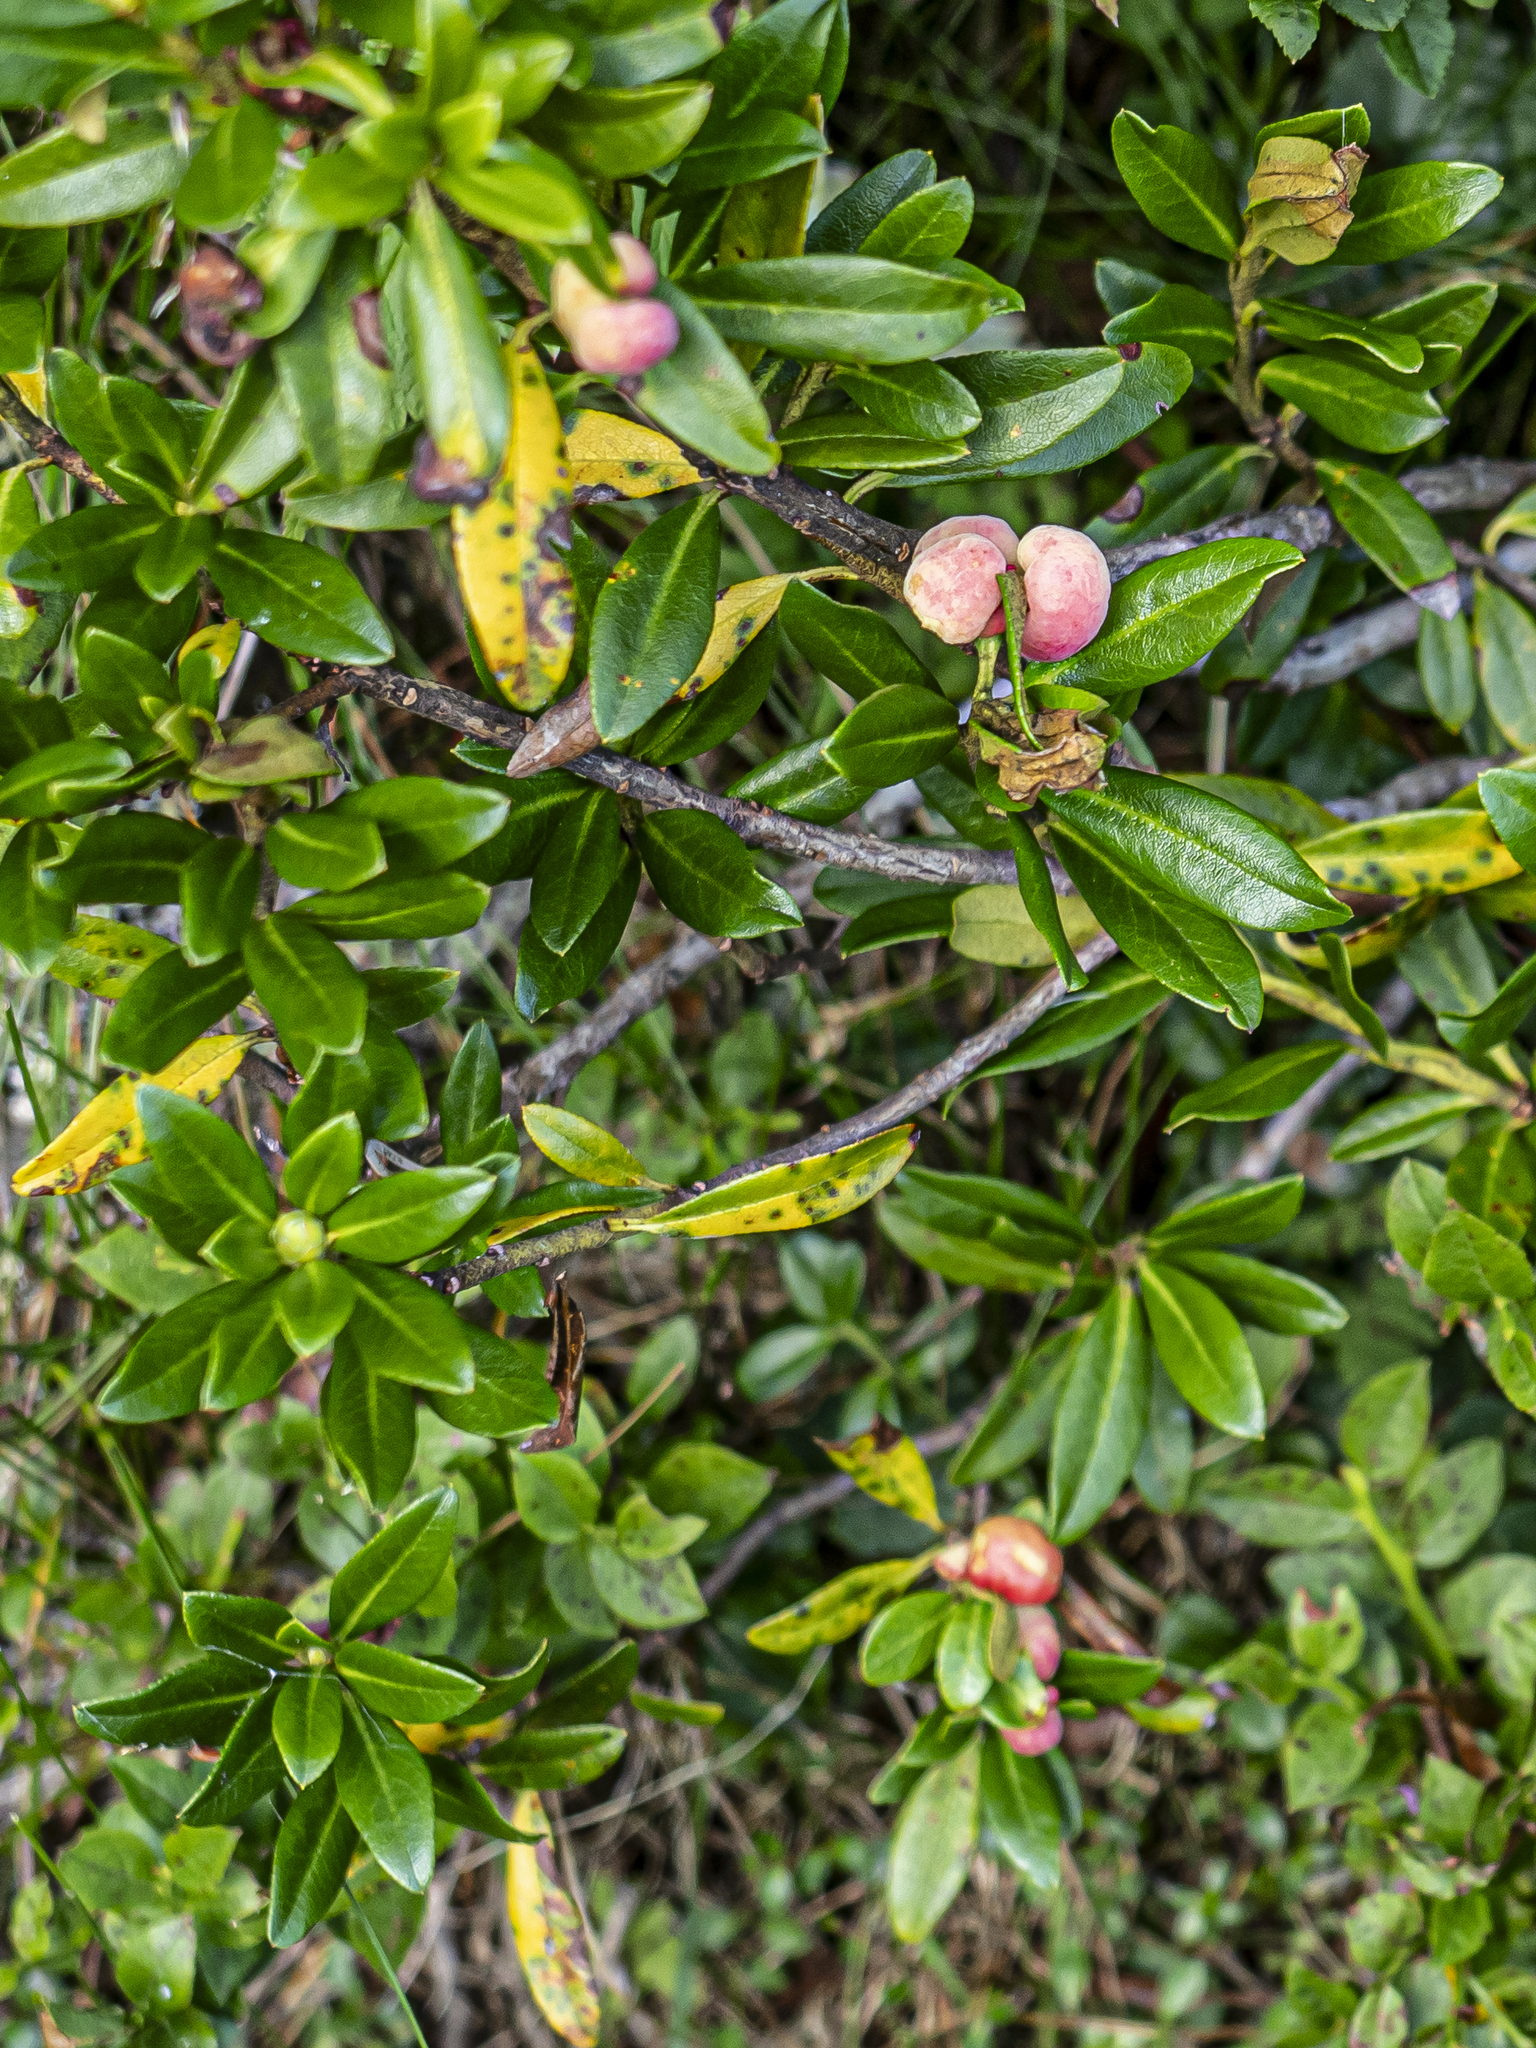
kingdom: Fungi
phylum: Basidiomycota
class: Exobasidiomycetes
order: Exobasidiales
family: Exobasidiaceae
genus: Exobasidium
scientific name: Exobasidium rhododendri
